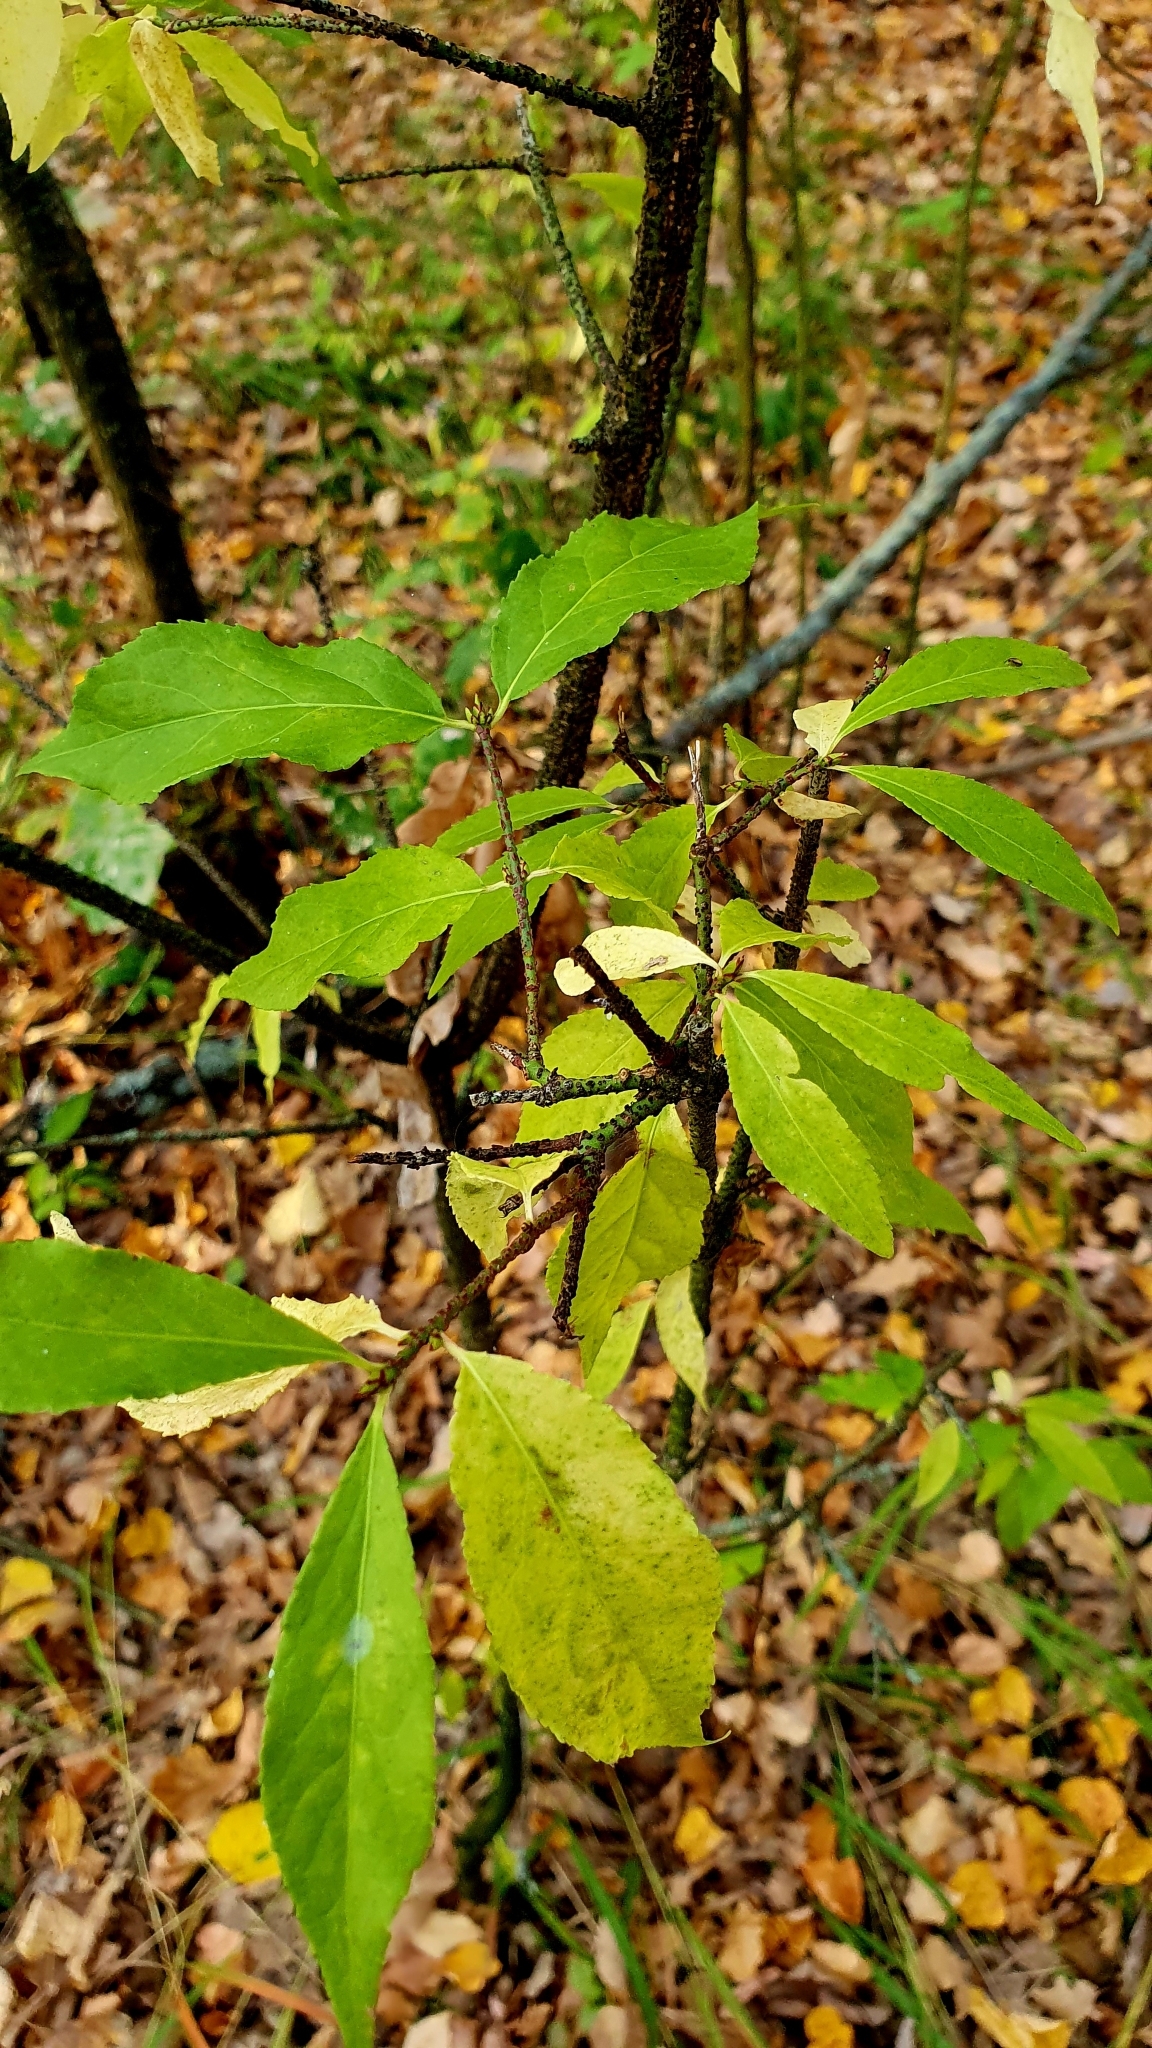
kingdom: Plantae
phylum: Tracheophyta
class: Magnoliopsida
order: Celastrales
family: Celastraceae
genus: Euonymus
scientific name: Euonymus verrucosus
